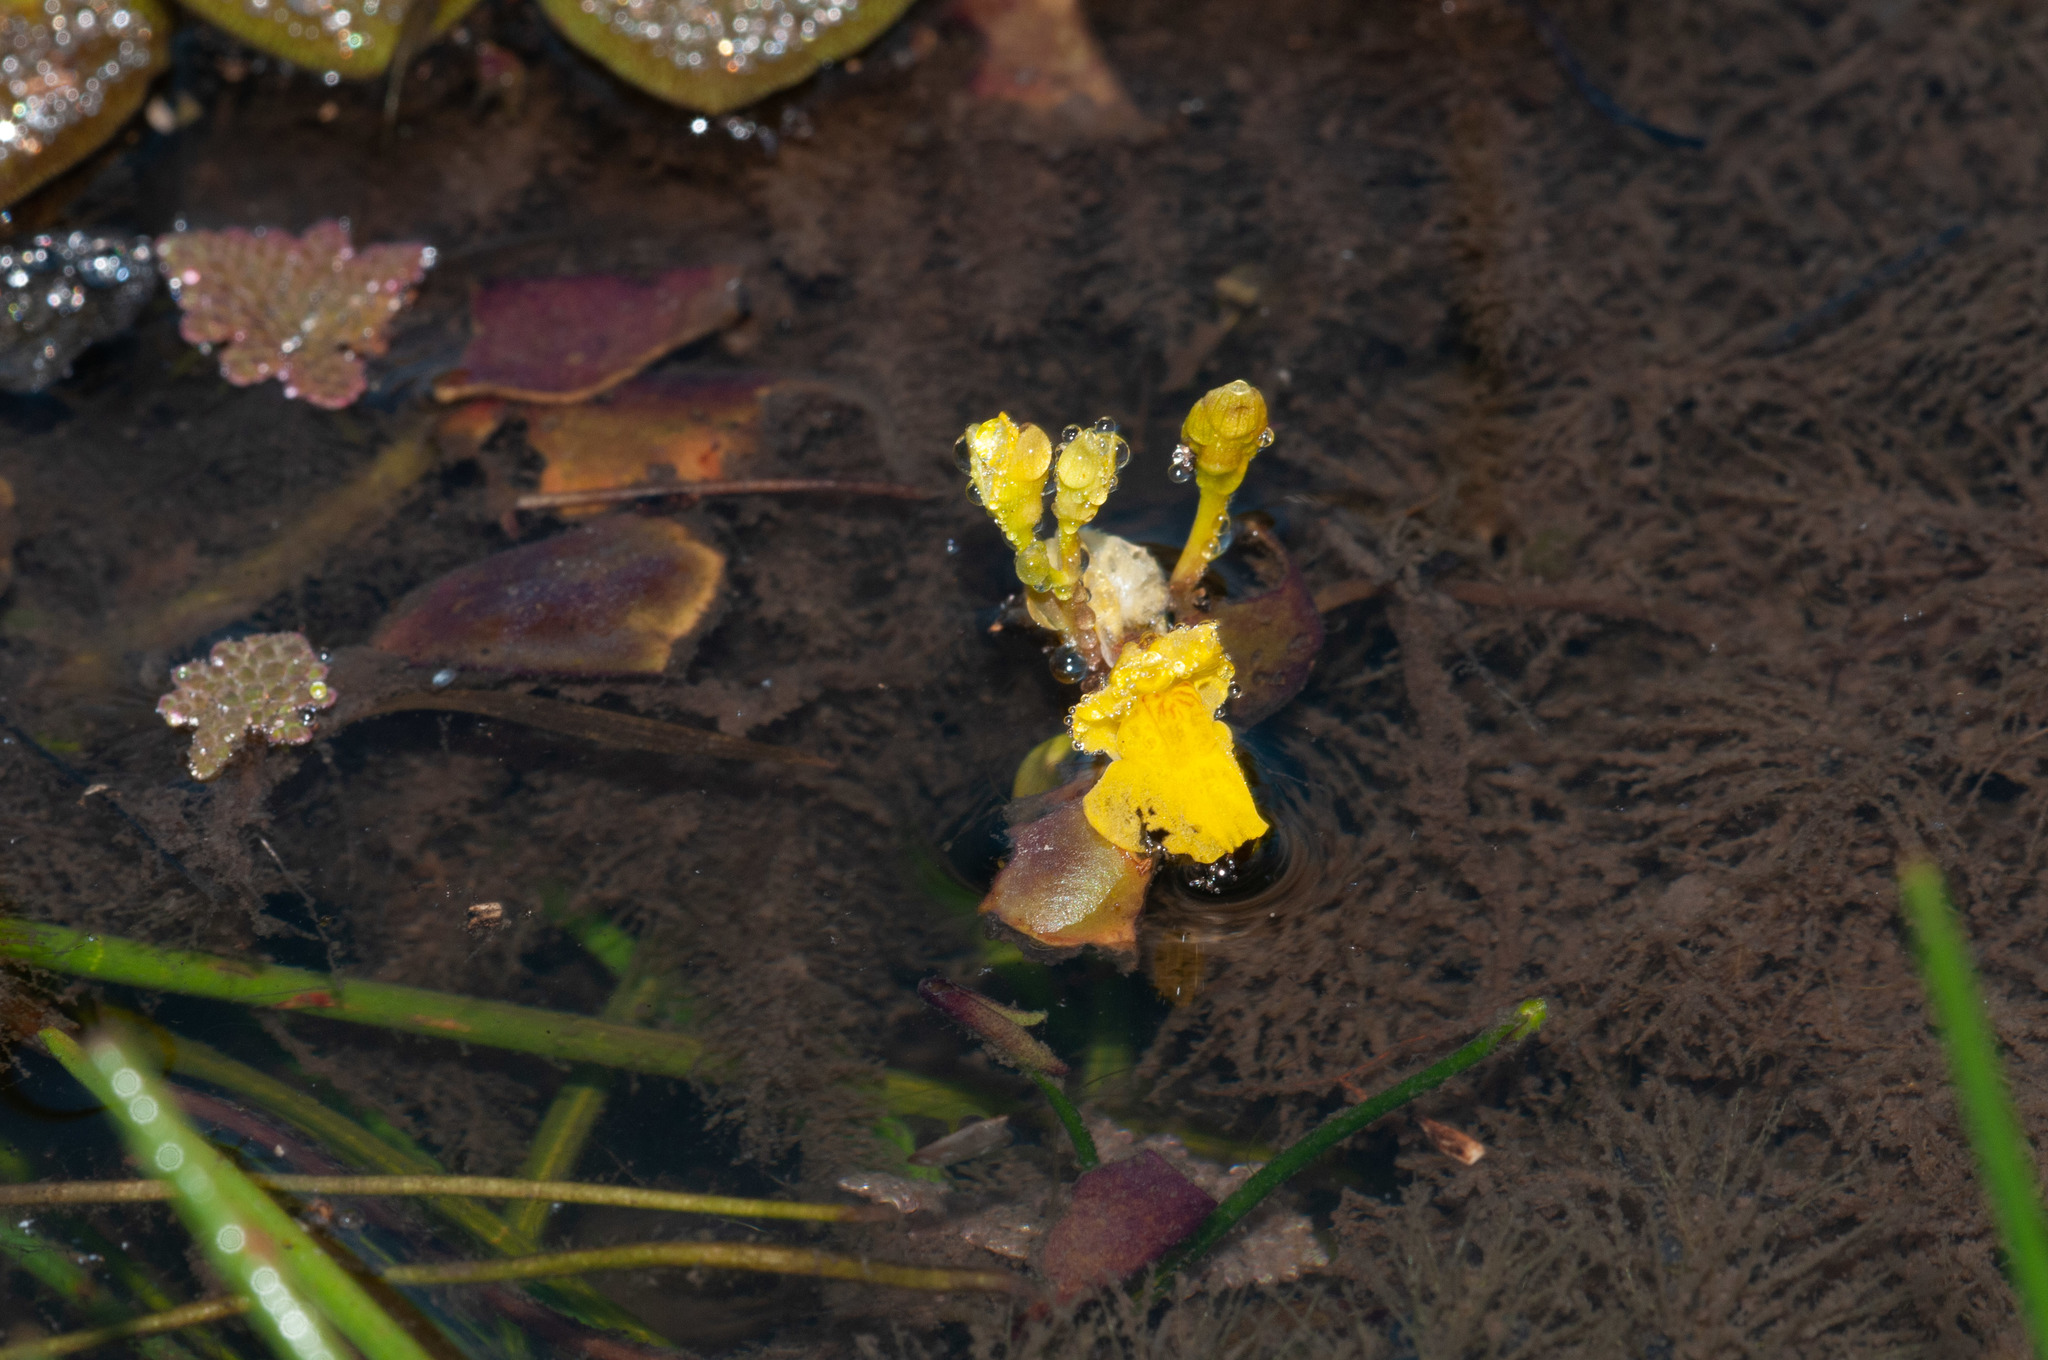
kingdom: Plantae
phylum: Tracheophyta
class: Magnoliopsida
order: Lamiales
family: Lentibulariaceae
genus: Utricularia
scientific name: Utricularia aurea
